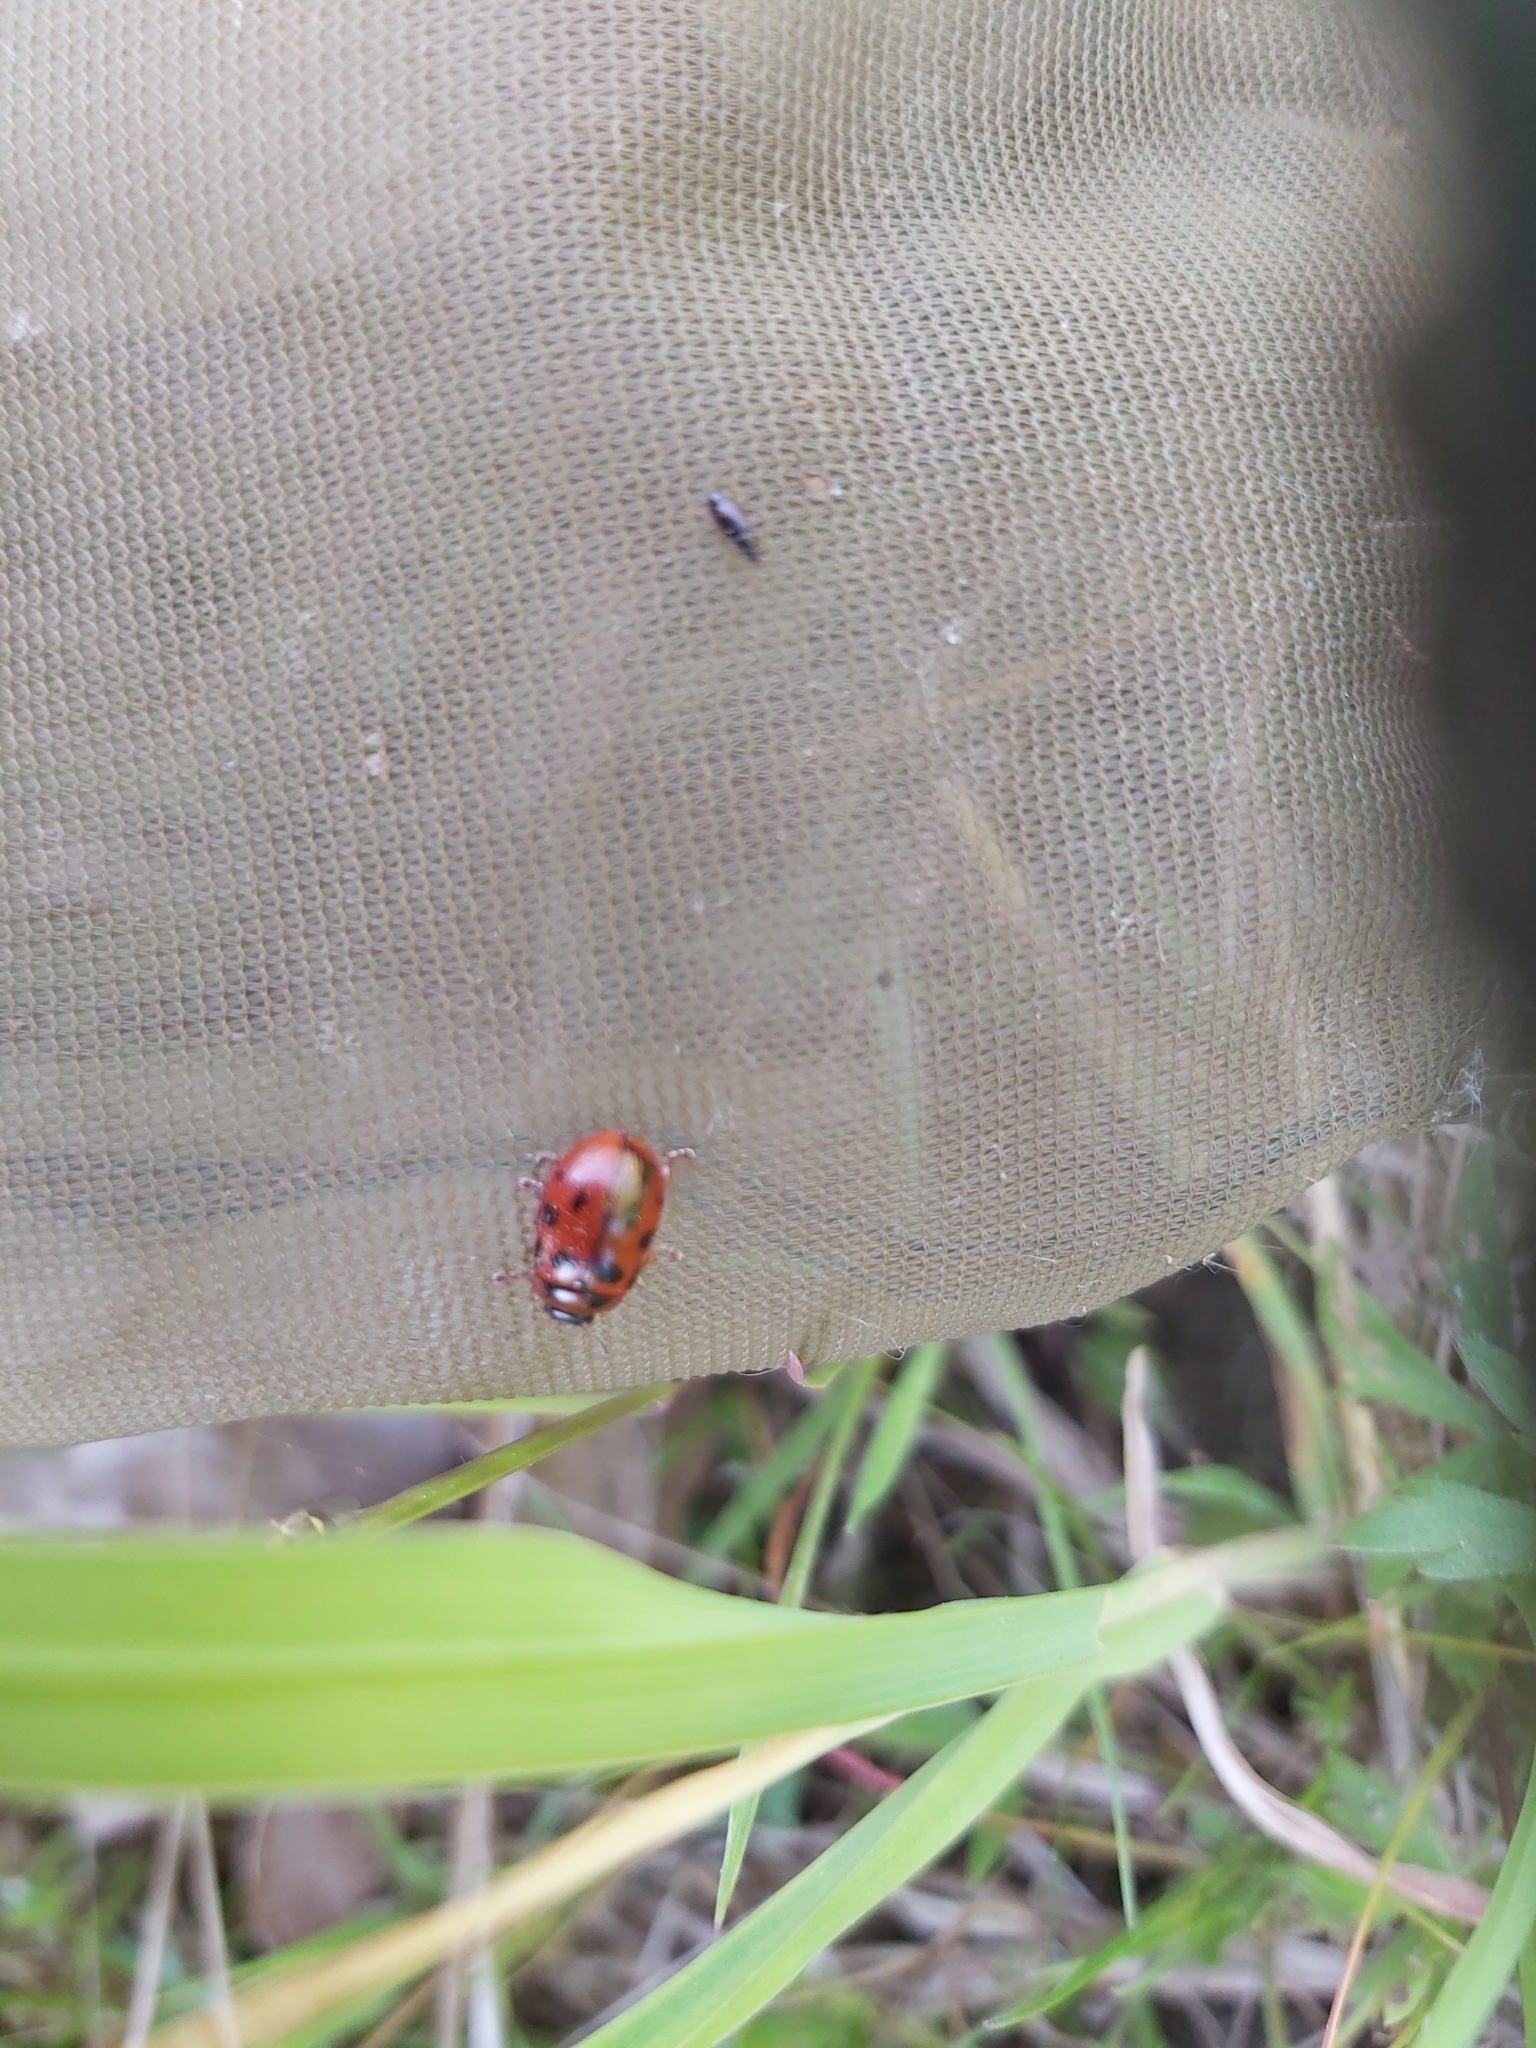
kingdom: Animalia
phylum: Arthropoda
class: Insecta
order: Coleoptera
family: Chrysomelidae
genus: Gonioctena
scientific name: Gonioctena decemnotata
